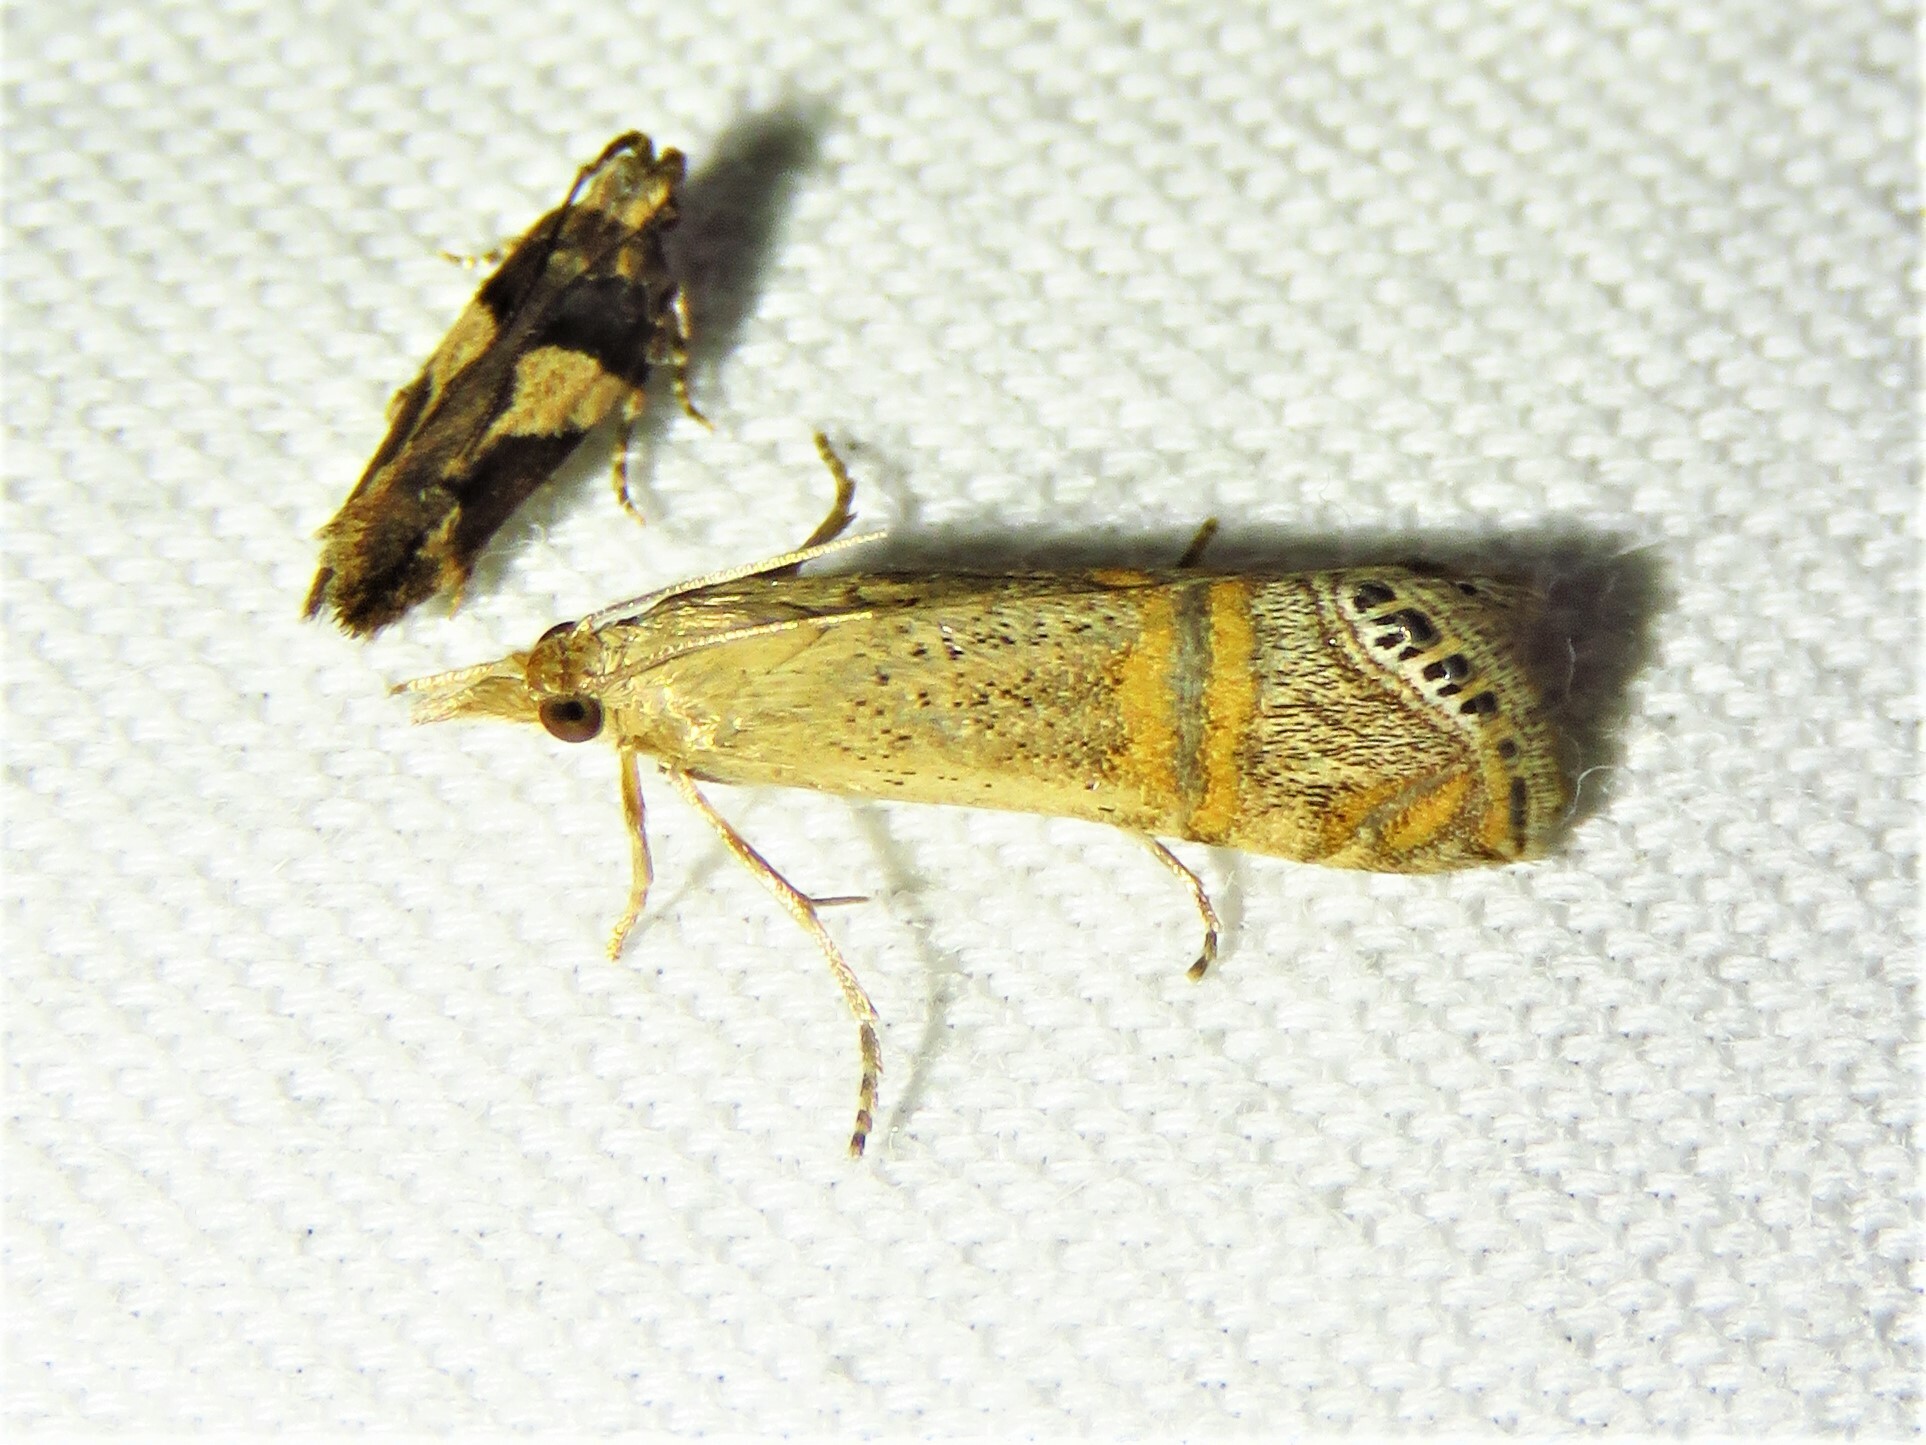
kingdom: Animalia
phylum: Arthropoda
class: Insecta
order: Lepidoptera
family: Crambidae
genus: Euchromius
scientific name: Euchromius ocellea
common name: Necklace veneer moth
